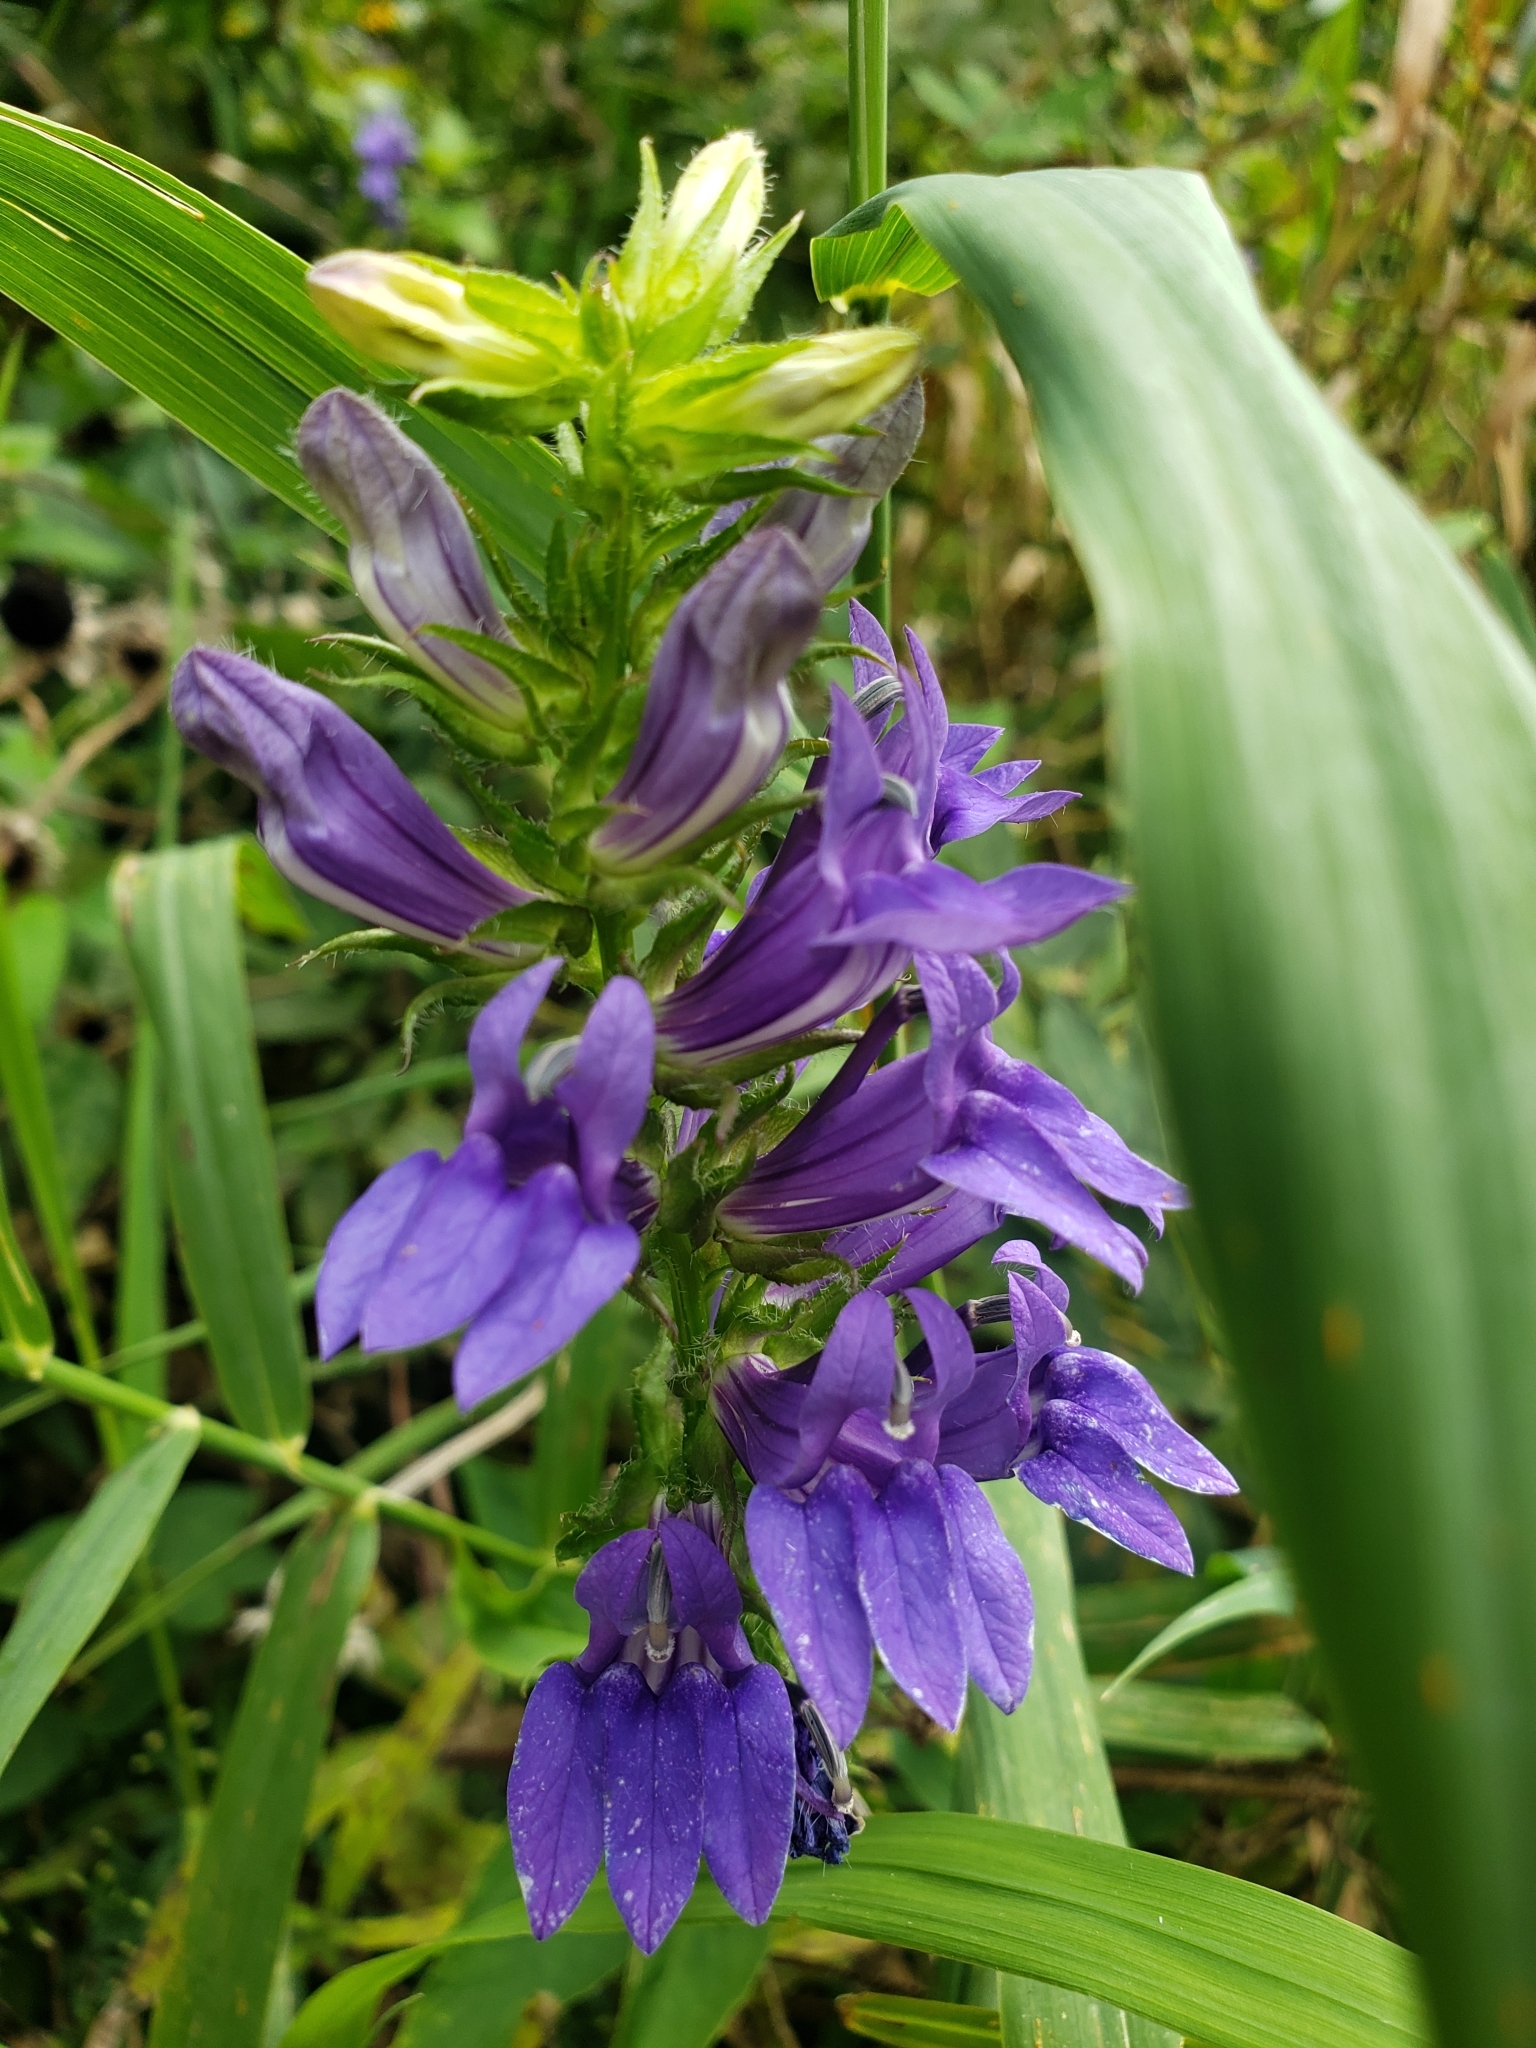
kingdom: Plantae
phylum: Tracheophyta
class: Magnoliopsida
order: Asterales
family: Campanulaceae
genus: Lobelia
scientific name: Lobelia siphilitica
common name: Great lobelia
